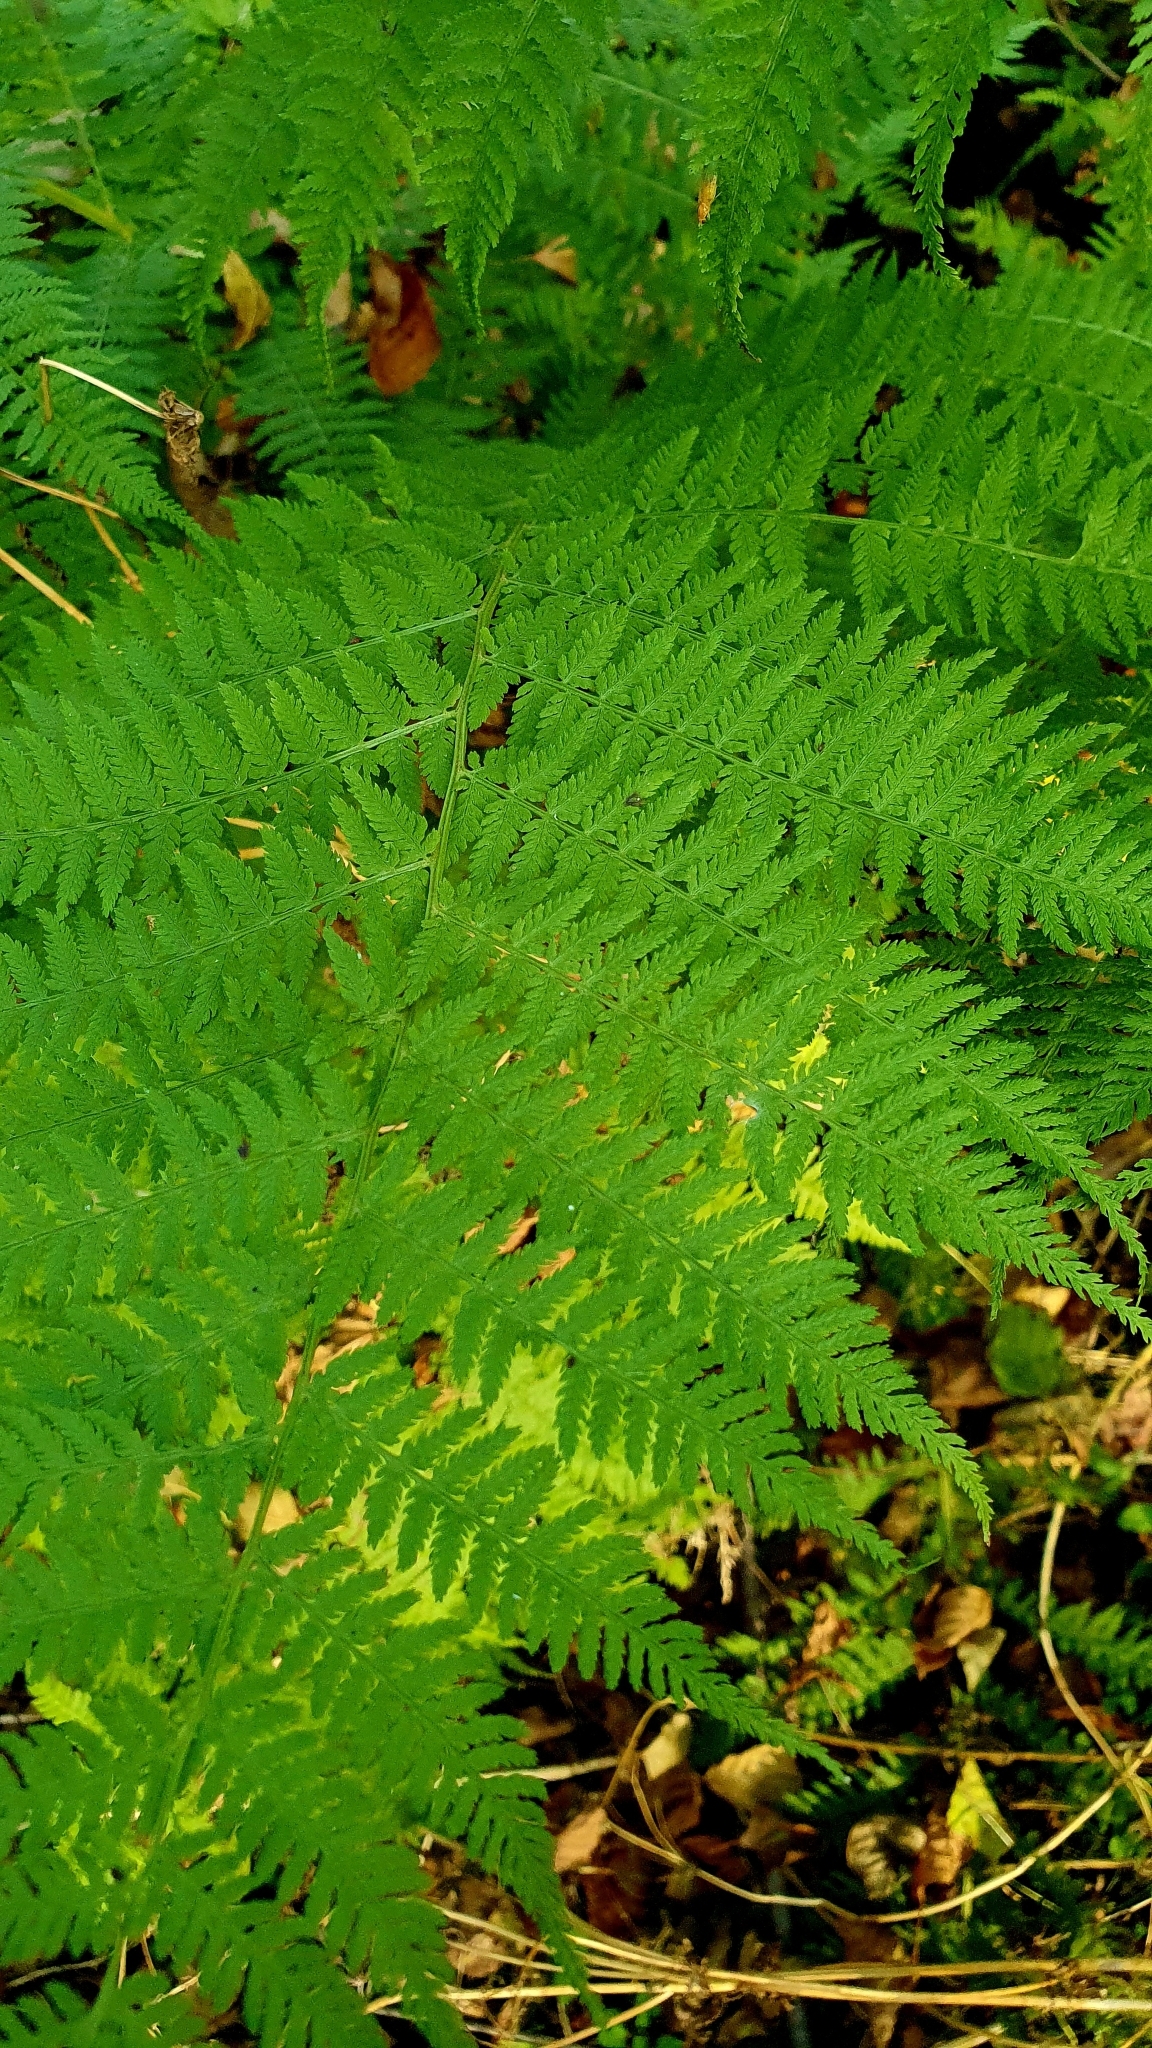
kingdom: Plantae
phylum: Tracheophyta
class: Polypodiopsida
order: Polypodiales
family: Athyriaceae
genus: Athyrium
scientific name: Athyrium filix-femina
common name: Lady fern
